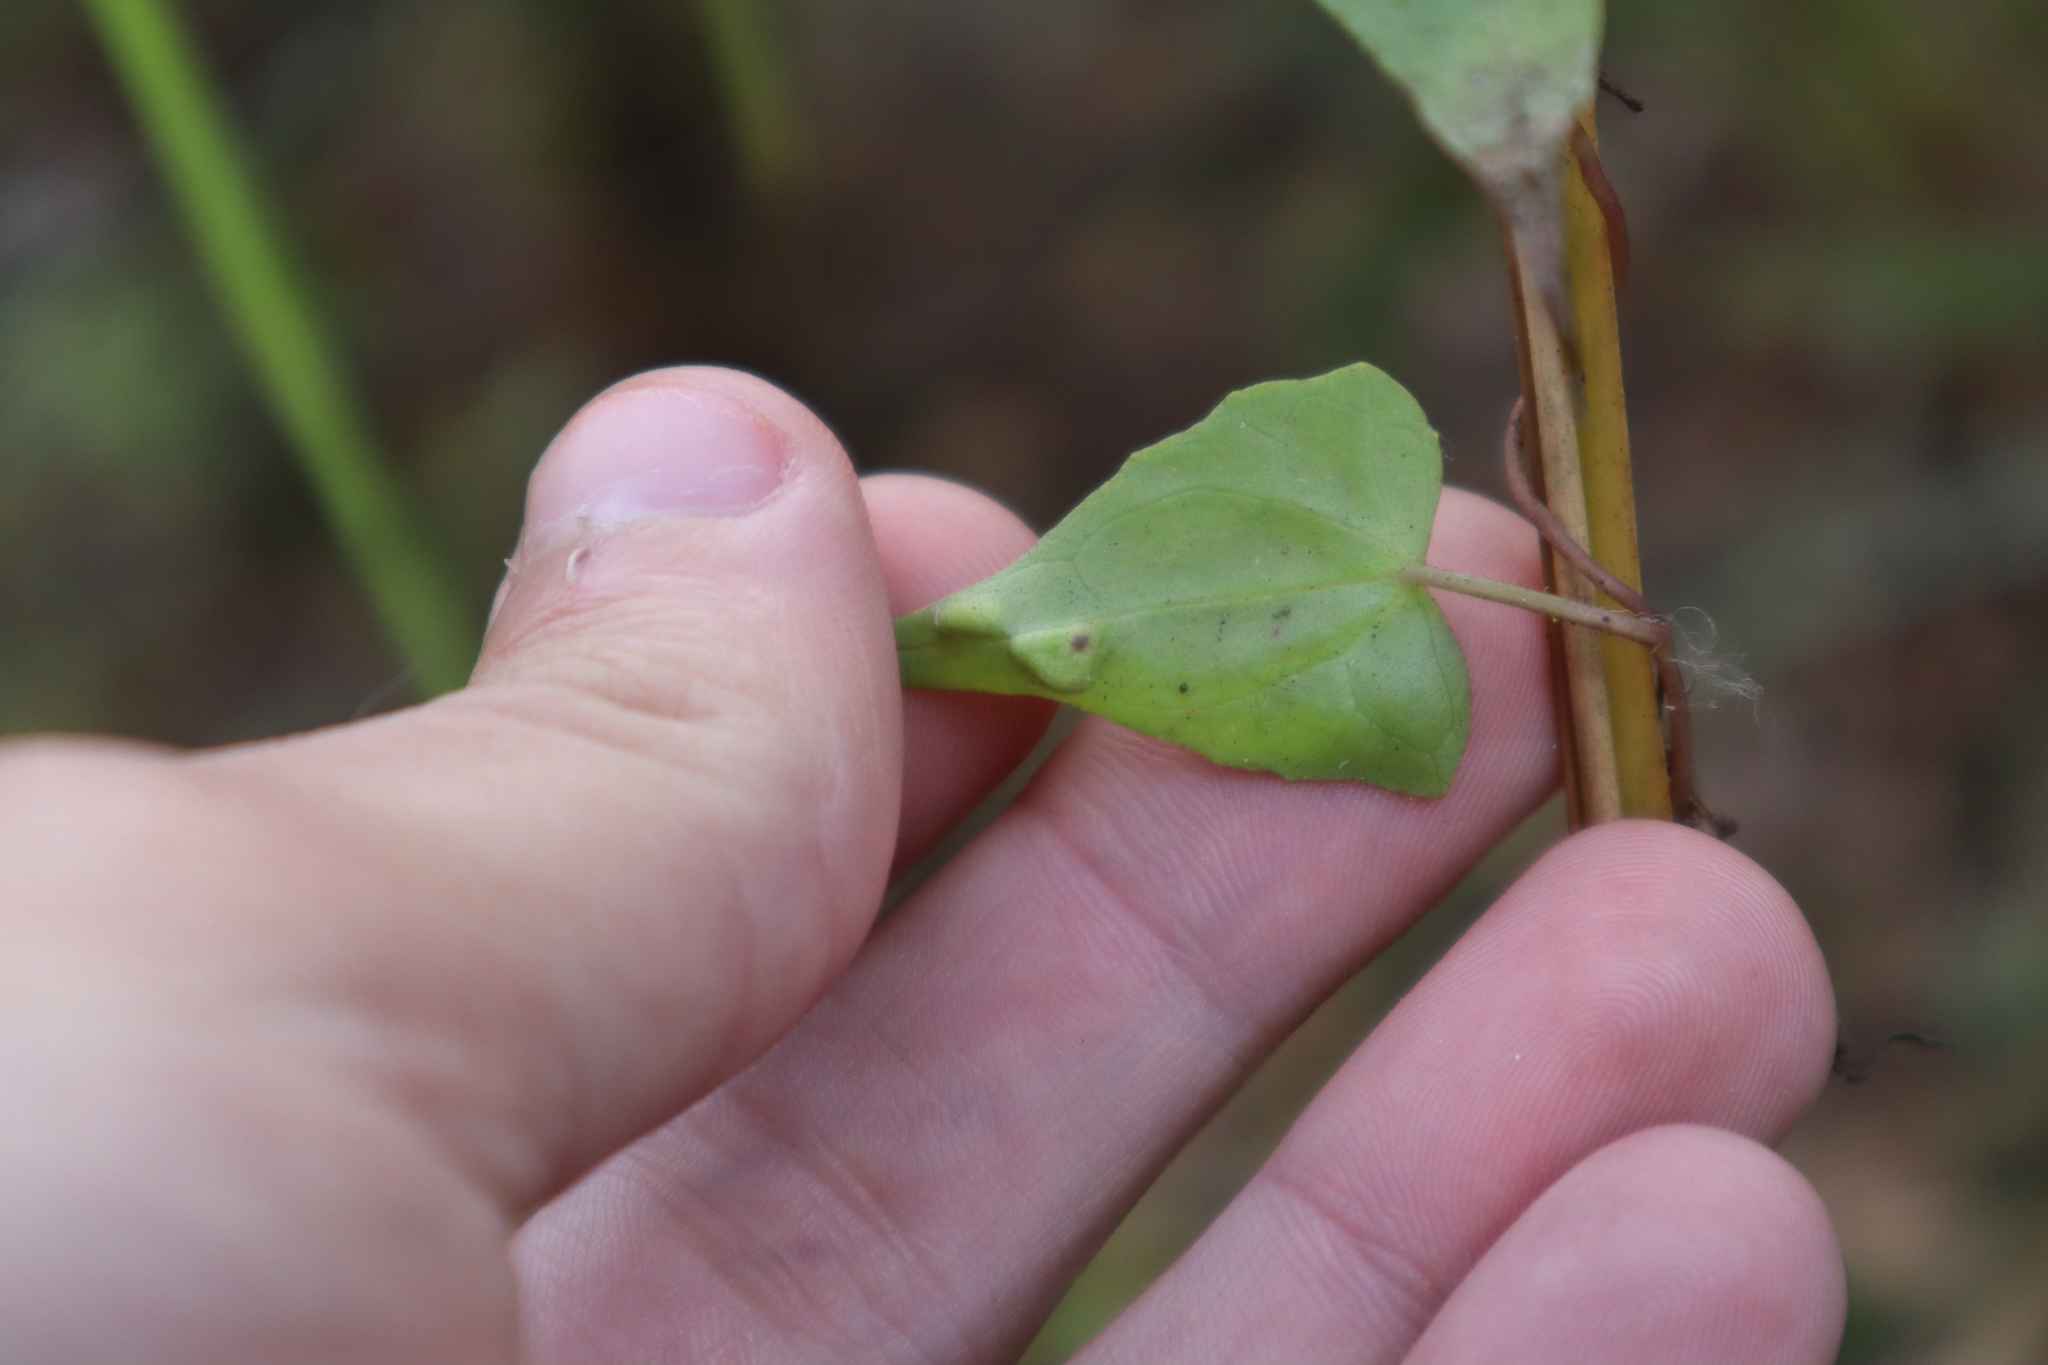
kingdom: Plantae
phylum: Tracheophyta
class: Magnoliopsida
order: Asterales
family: Asteraceae
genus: Mikania
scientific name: Mikania scandens
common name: Climbing hempvine
